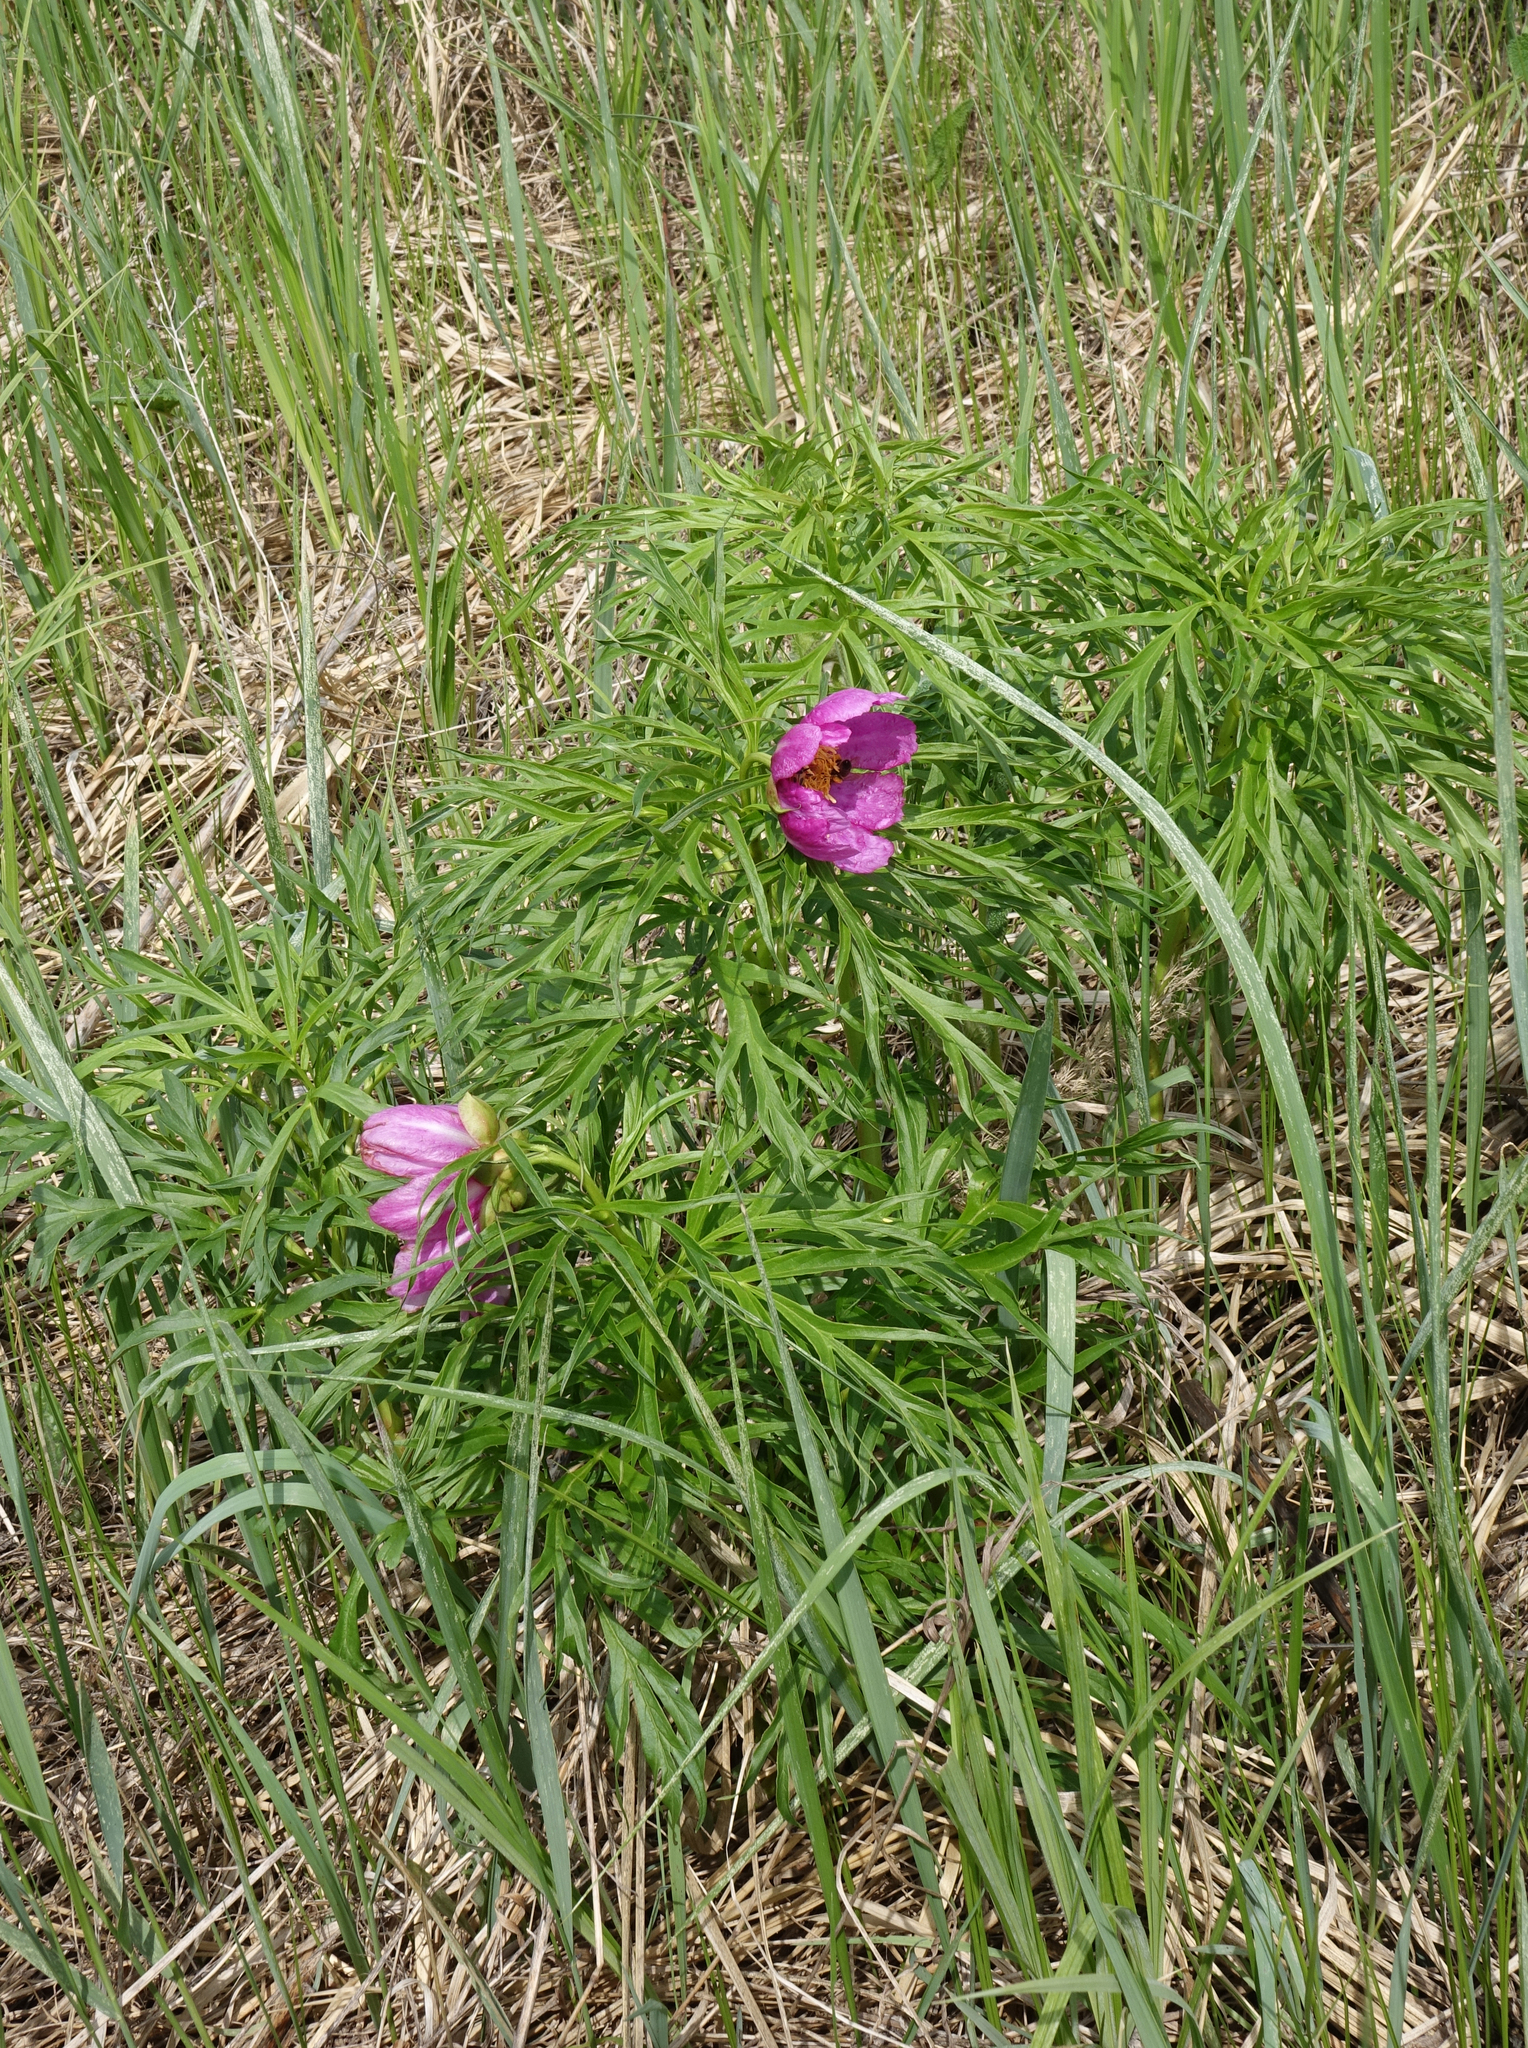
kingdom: Plantae
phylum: Tracheophyta
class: Magnoliopsida
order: Saxifragales
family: Paeoniaceae
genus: Paeonia
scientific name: Paeonia anomala
